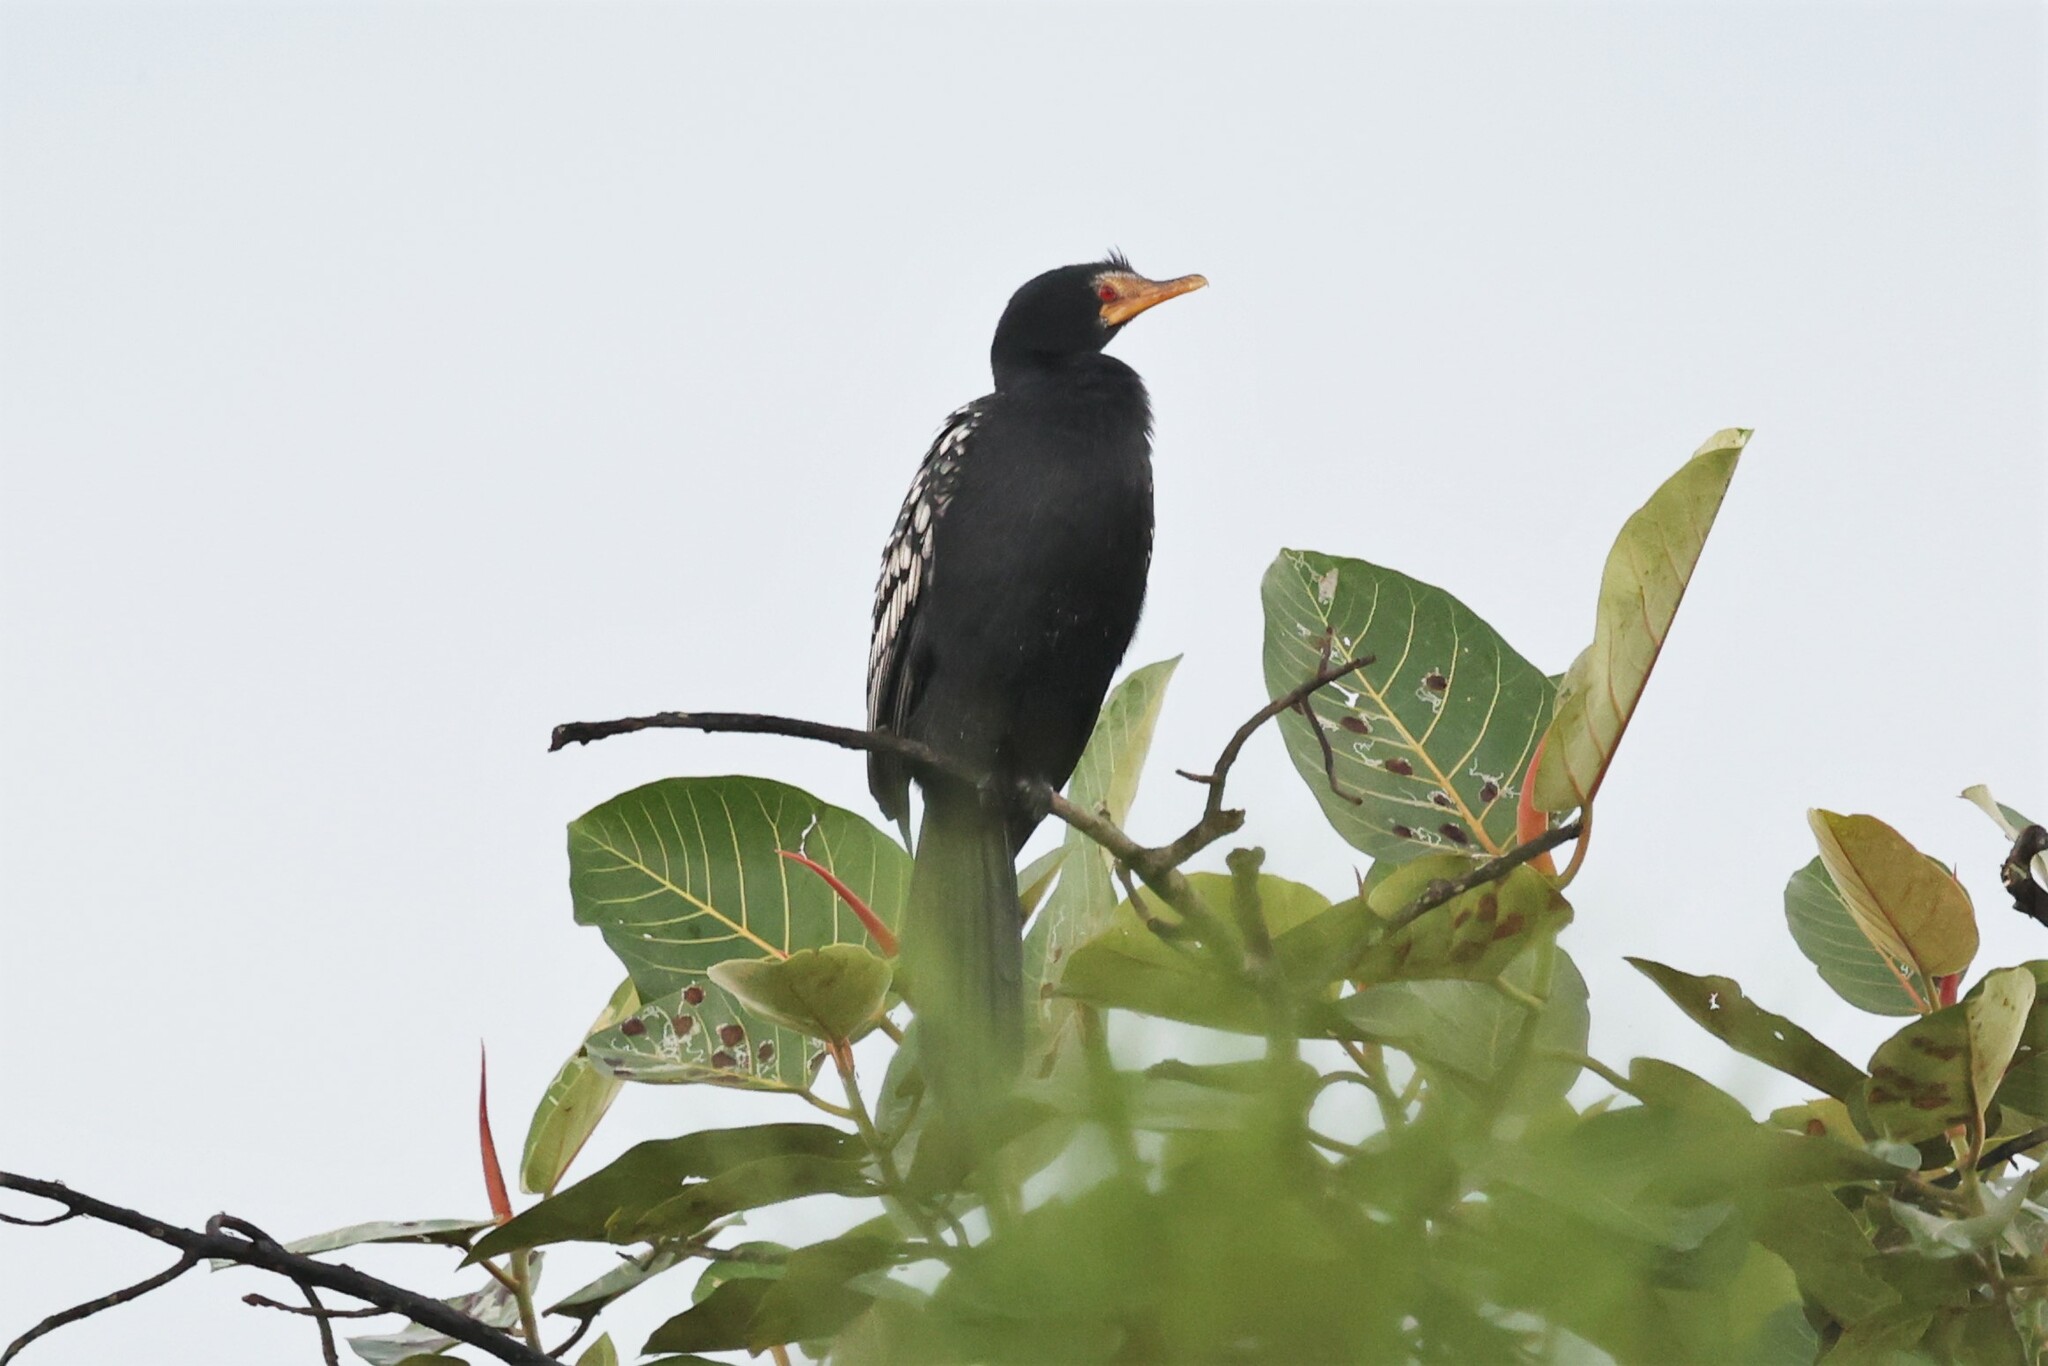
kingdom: Animalia
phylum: Chordata
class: Aves
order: Suliformes
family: Phalacrocoracidae
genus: Microcarbo
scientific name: Microcarbo africanus
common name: Long-tailed cormorant
